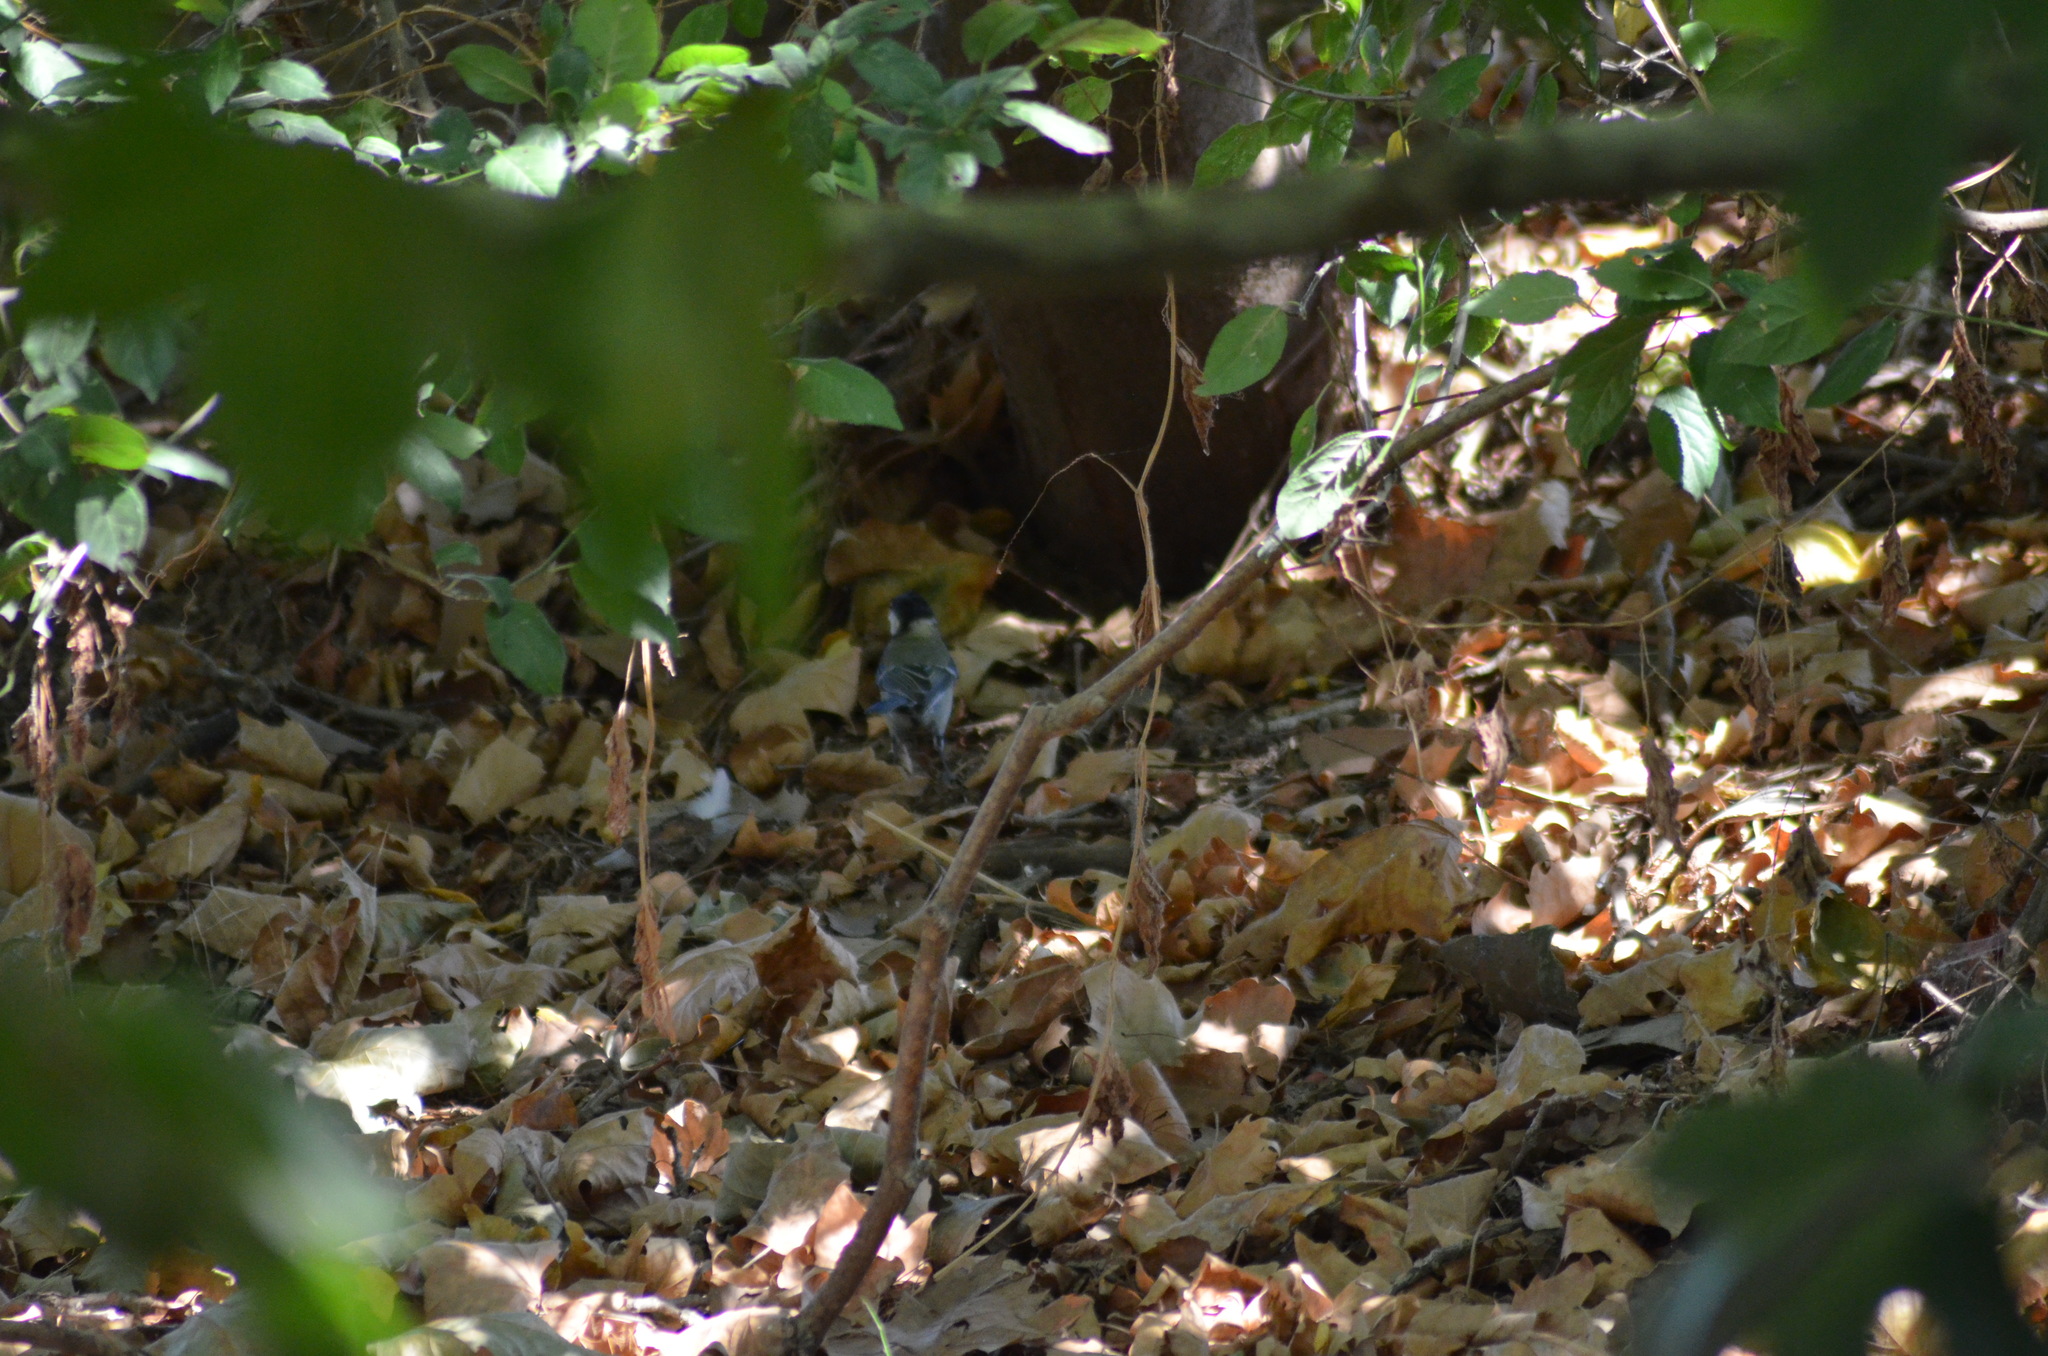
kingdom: Animalia
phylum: Chordata
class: Aves
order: Passeriformes
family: Paridae
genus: Parus
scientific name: Parus major
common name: Great tit
